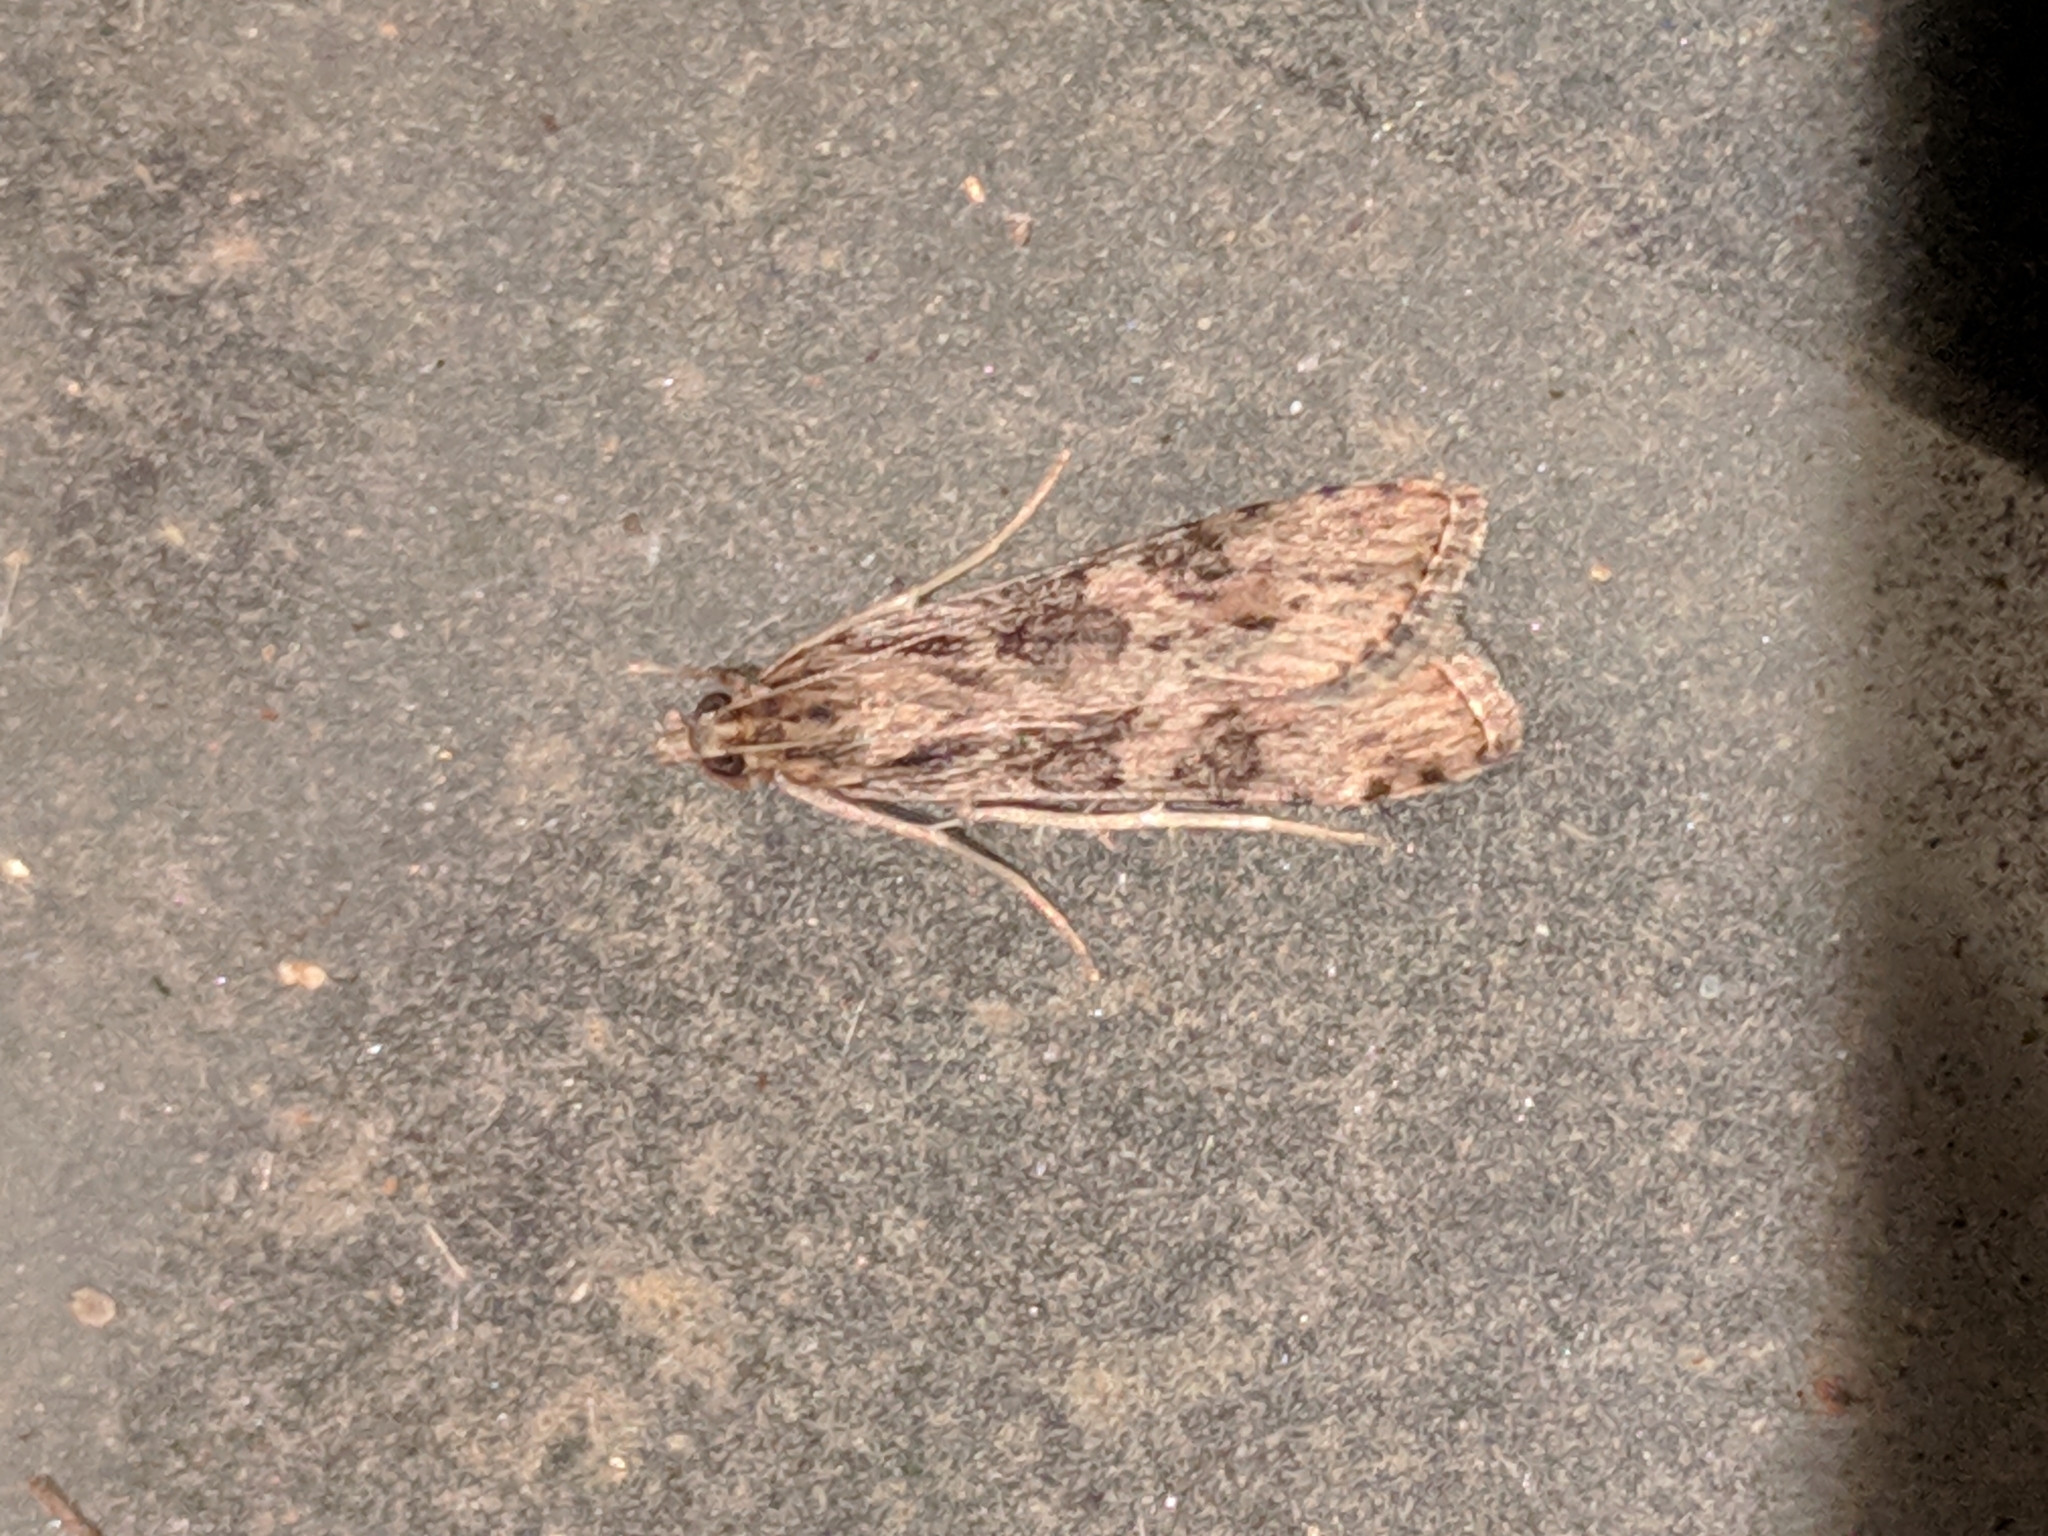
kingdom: Animalia
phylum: Arthropoda
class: Insecta
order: Lepidoptera
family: Crambidae
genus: Nomophila
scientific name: Nomophila nearctica
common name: American rush veneer
